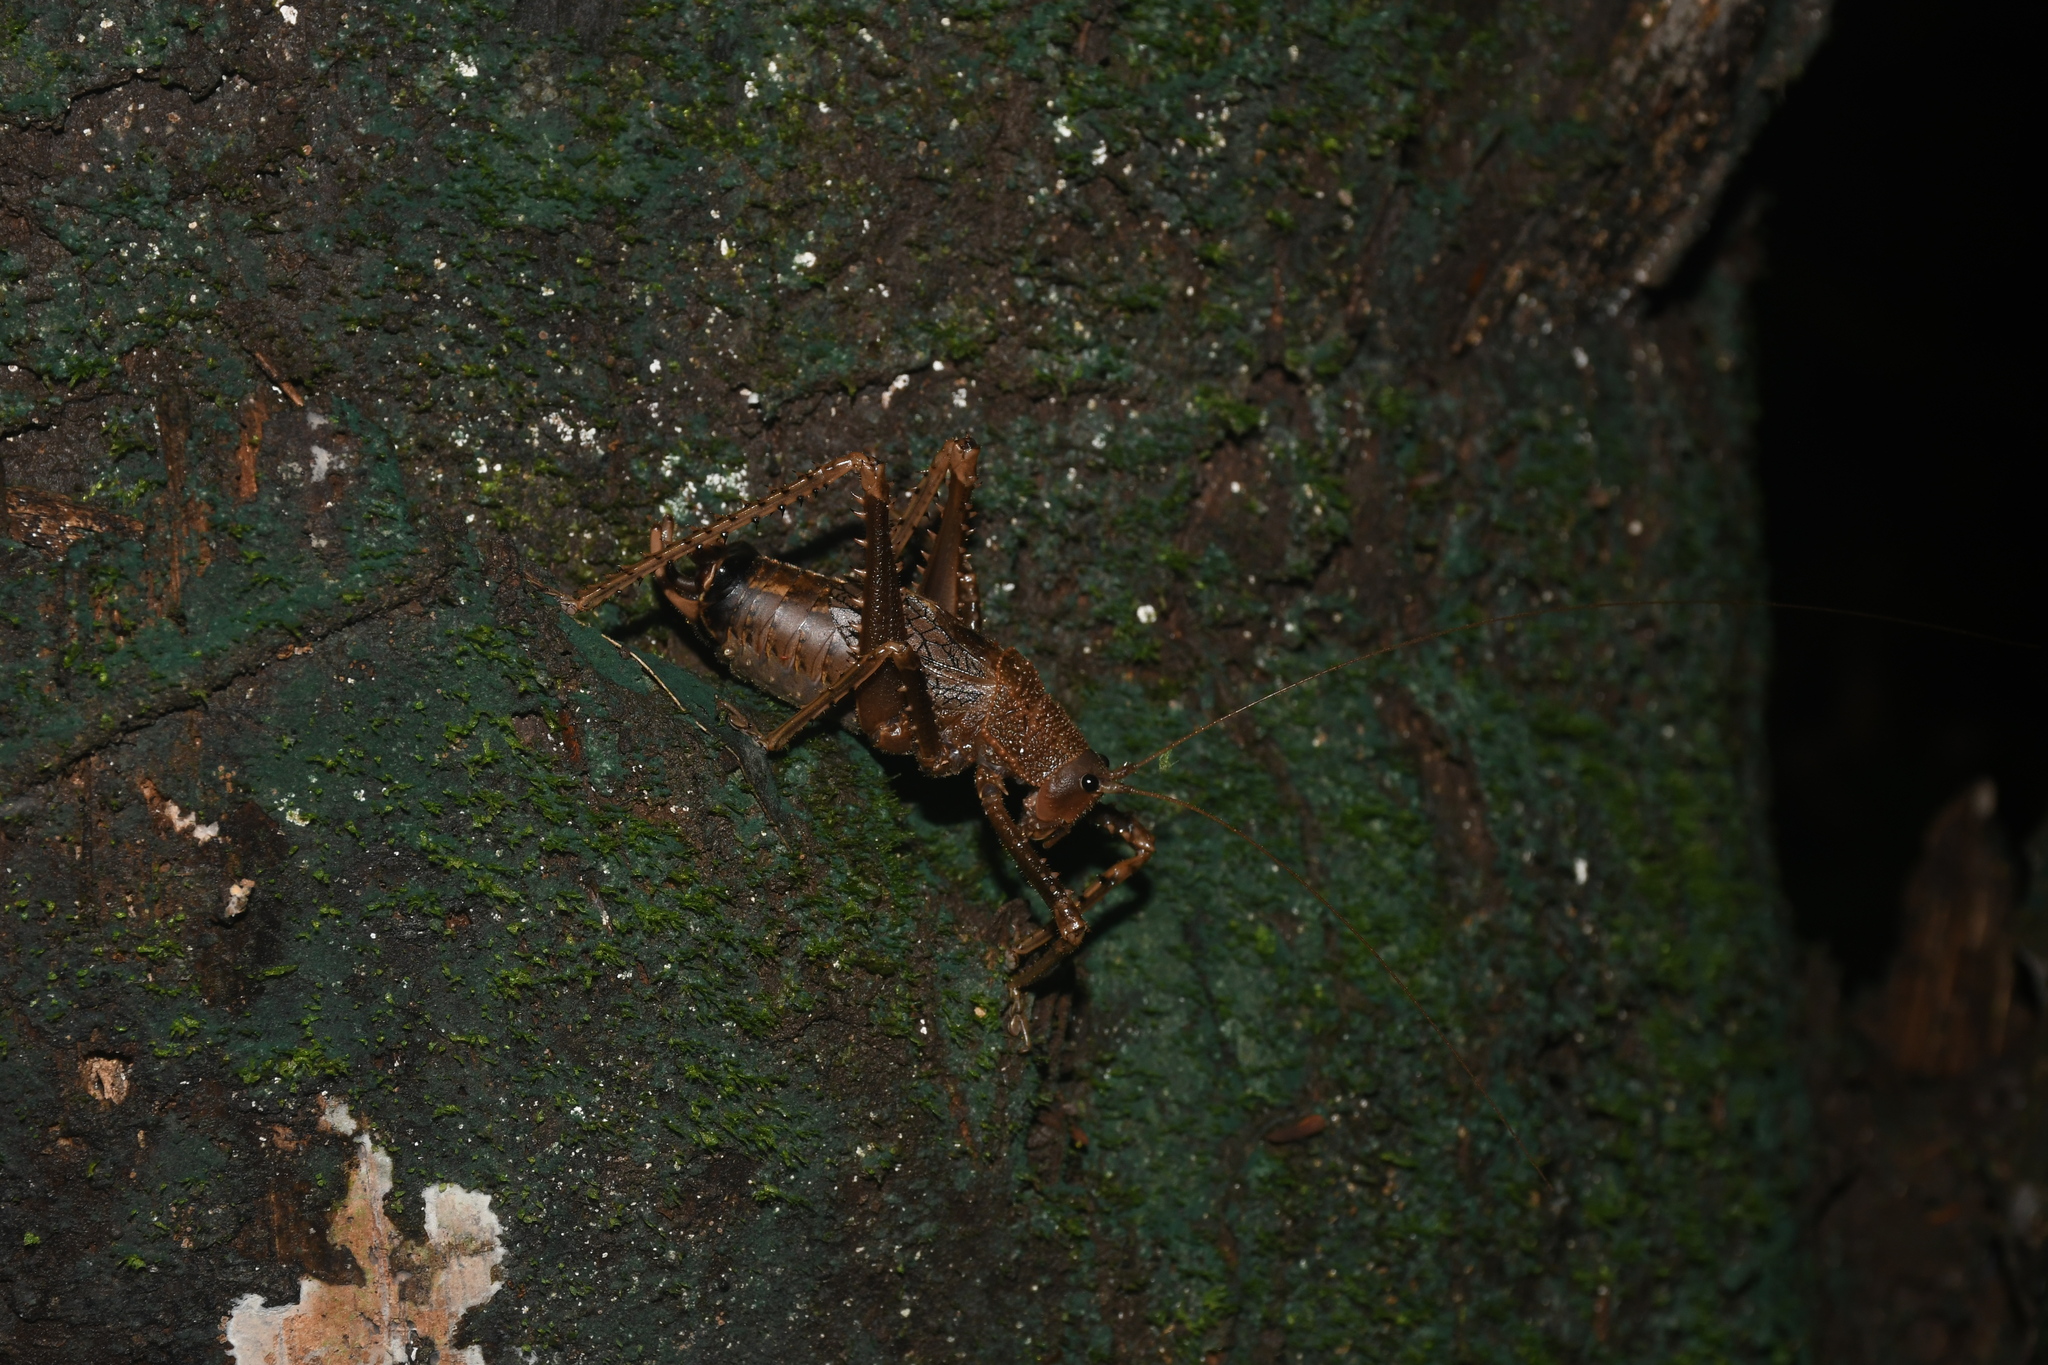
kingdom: Animalia
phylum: Arthropoda
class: Insecta
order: Orthoptera
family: Tettigoniidae
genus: Choeroparnops
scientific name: Choeroparnops forcipatus
